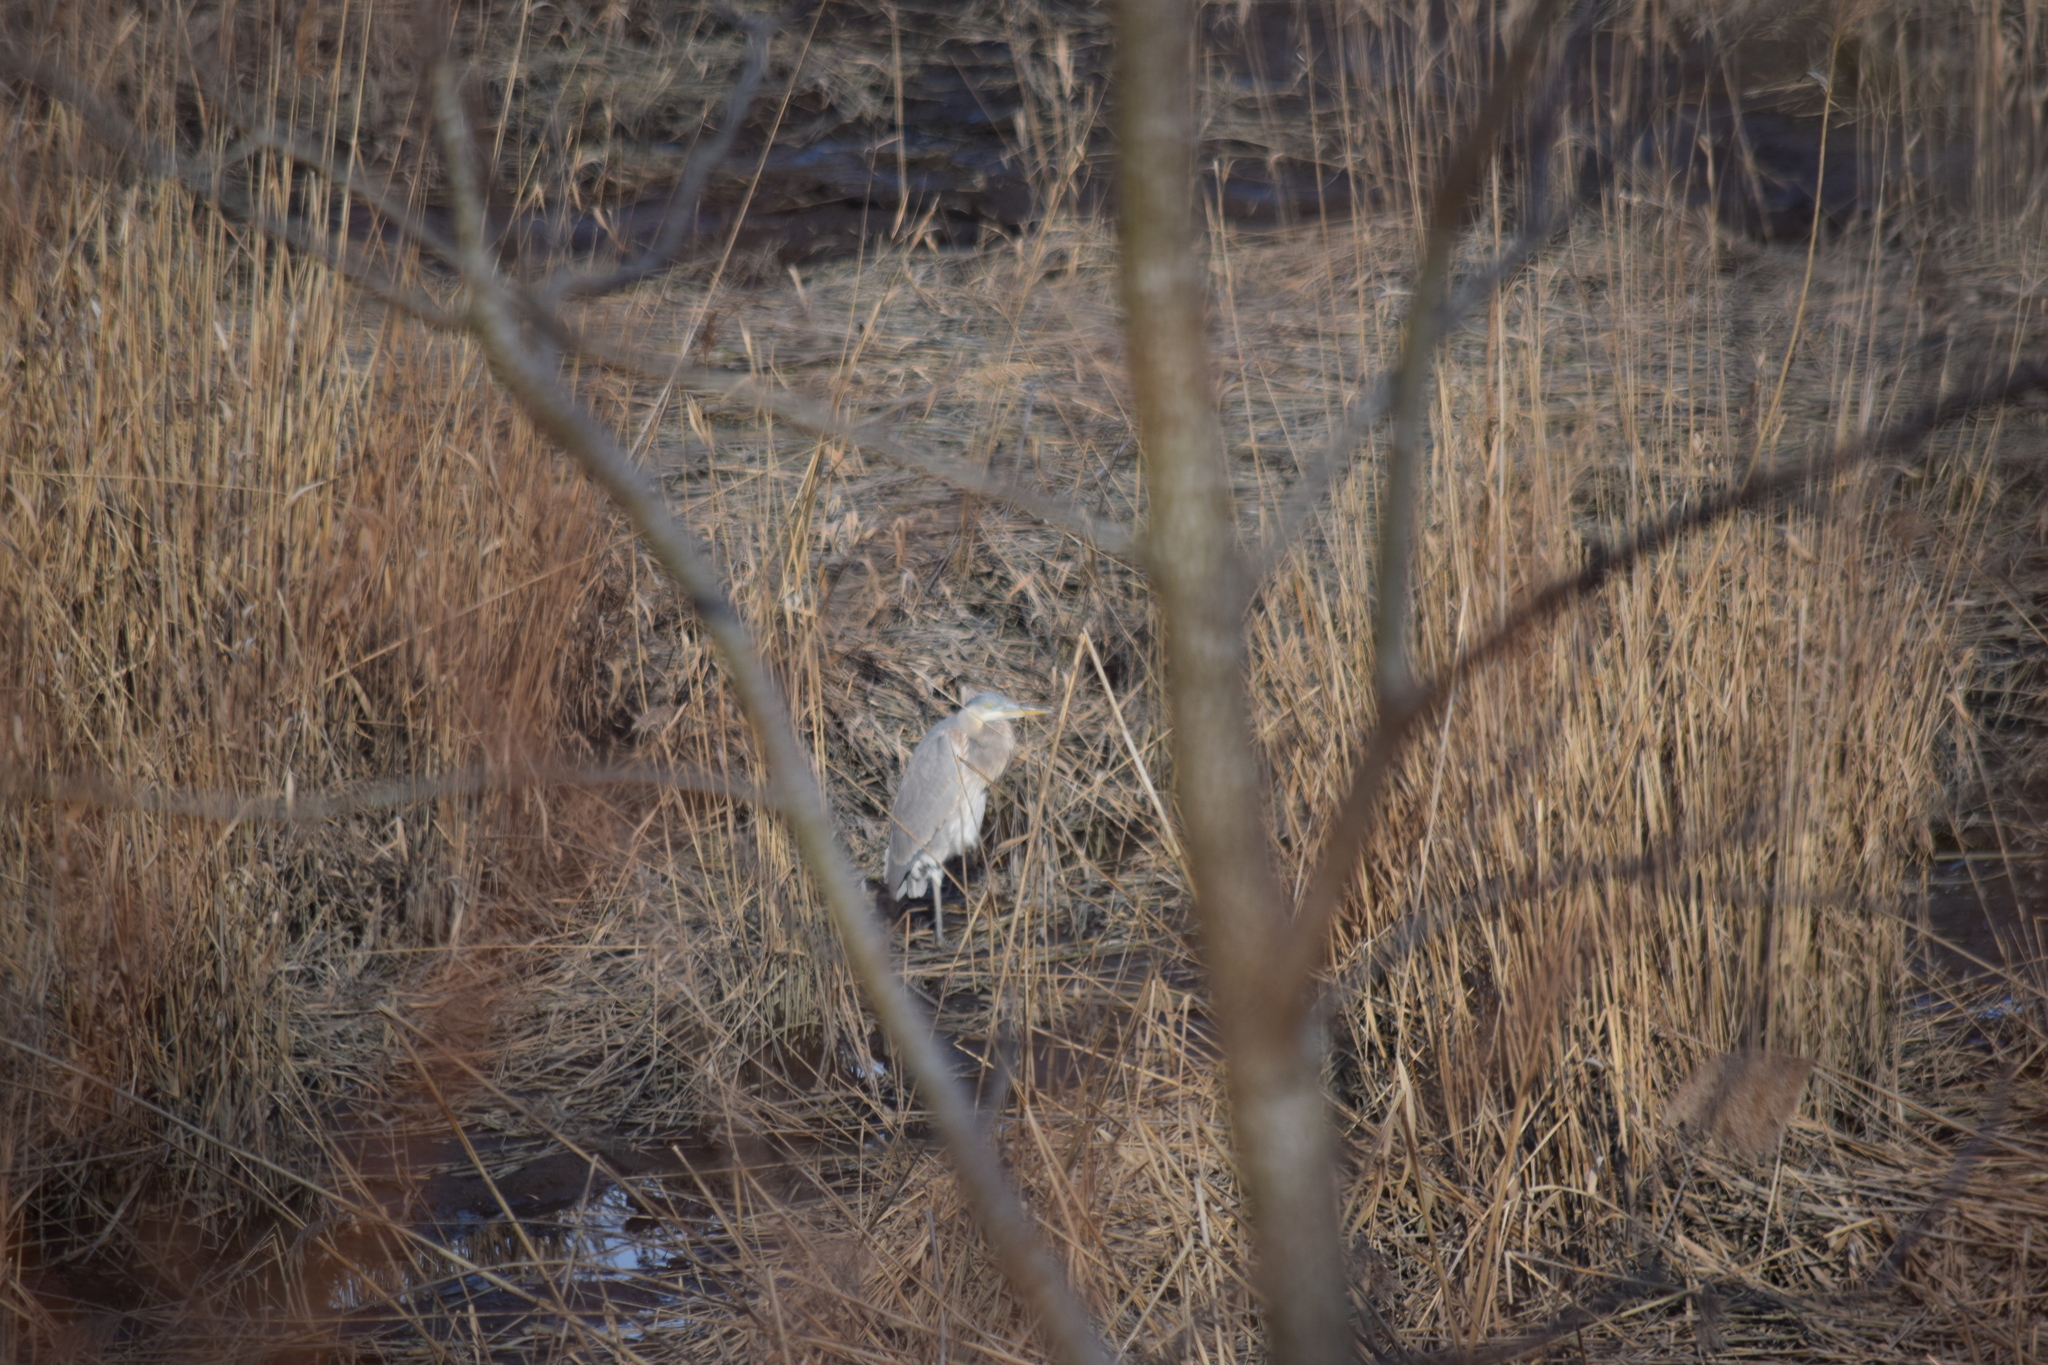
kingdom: Animalia
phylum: Chordata
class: Aves
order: Pelecaniformes
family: Ardeidae
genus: Ardea
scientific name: Ardea herodias
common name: Great blue heron
